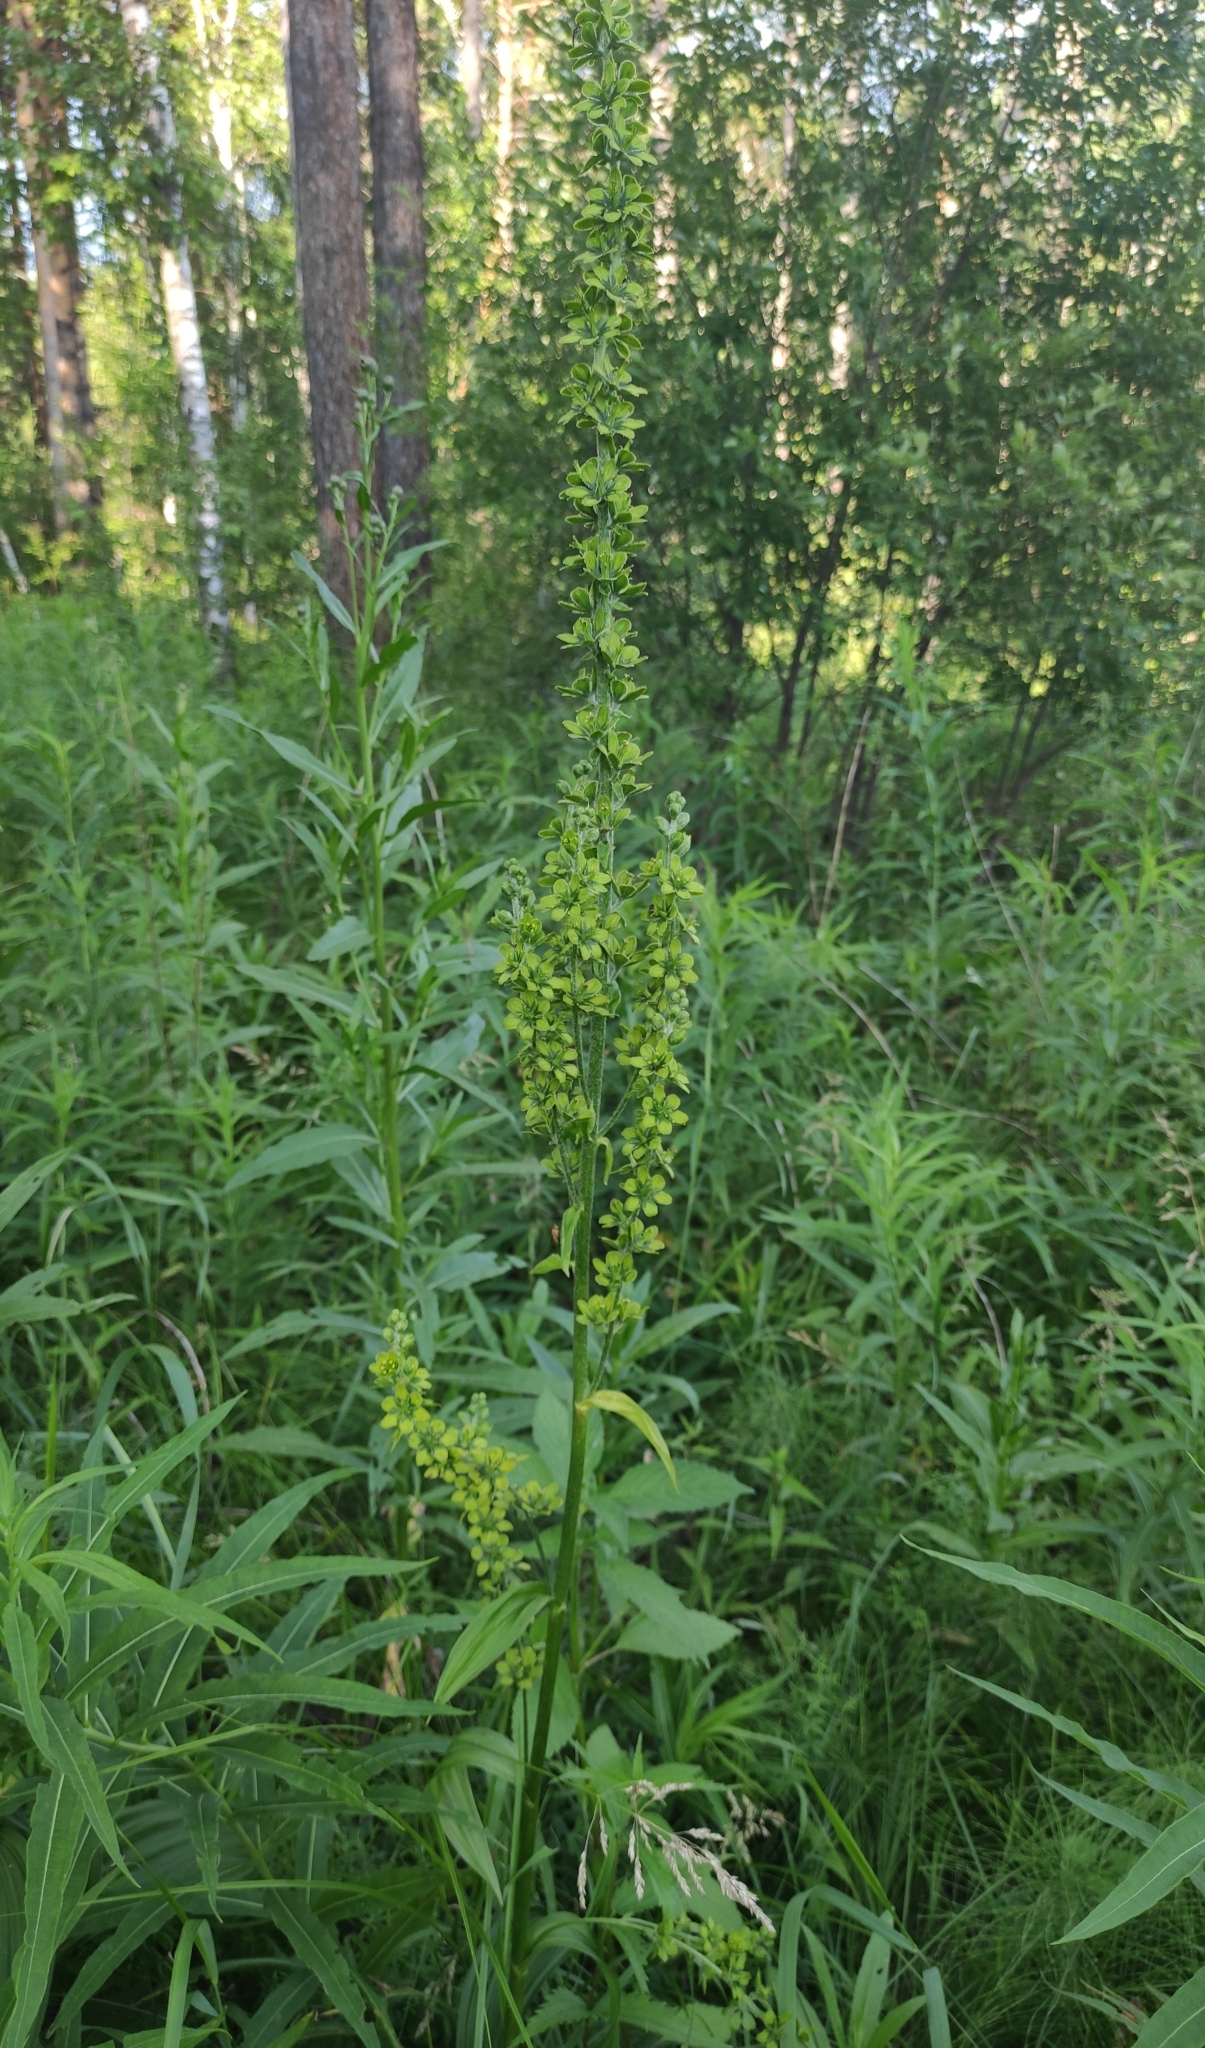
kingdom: Plantae
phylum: Tracheophyta
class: Liliopsida
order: Liliales
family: Melanthiaceae
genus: Veratrum
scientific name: Veratrum lobelianum
